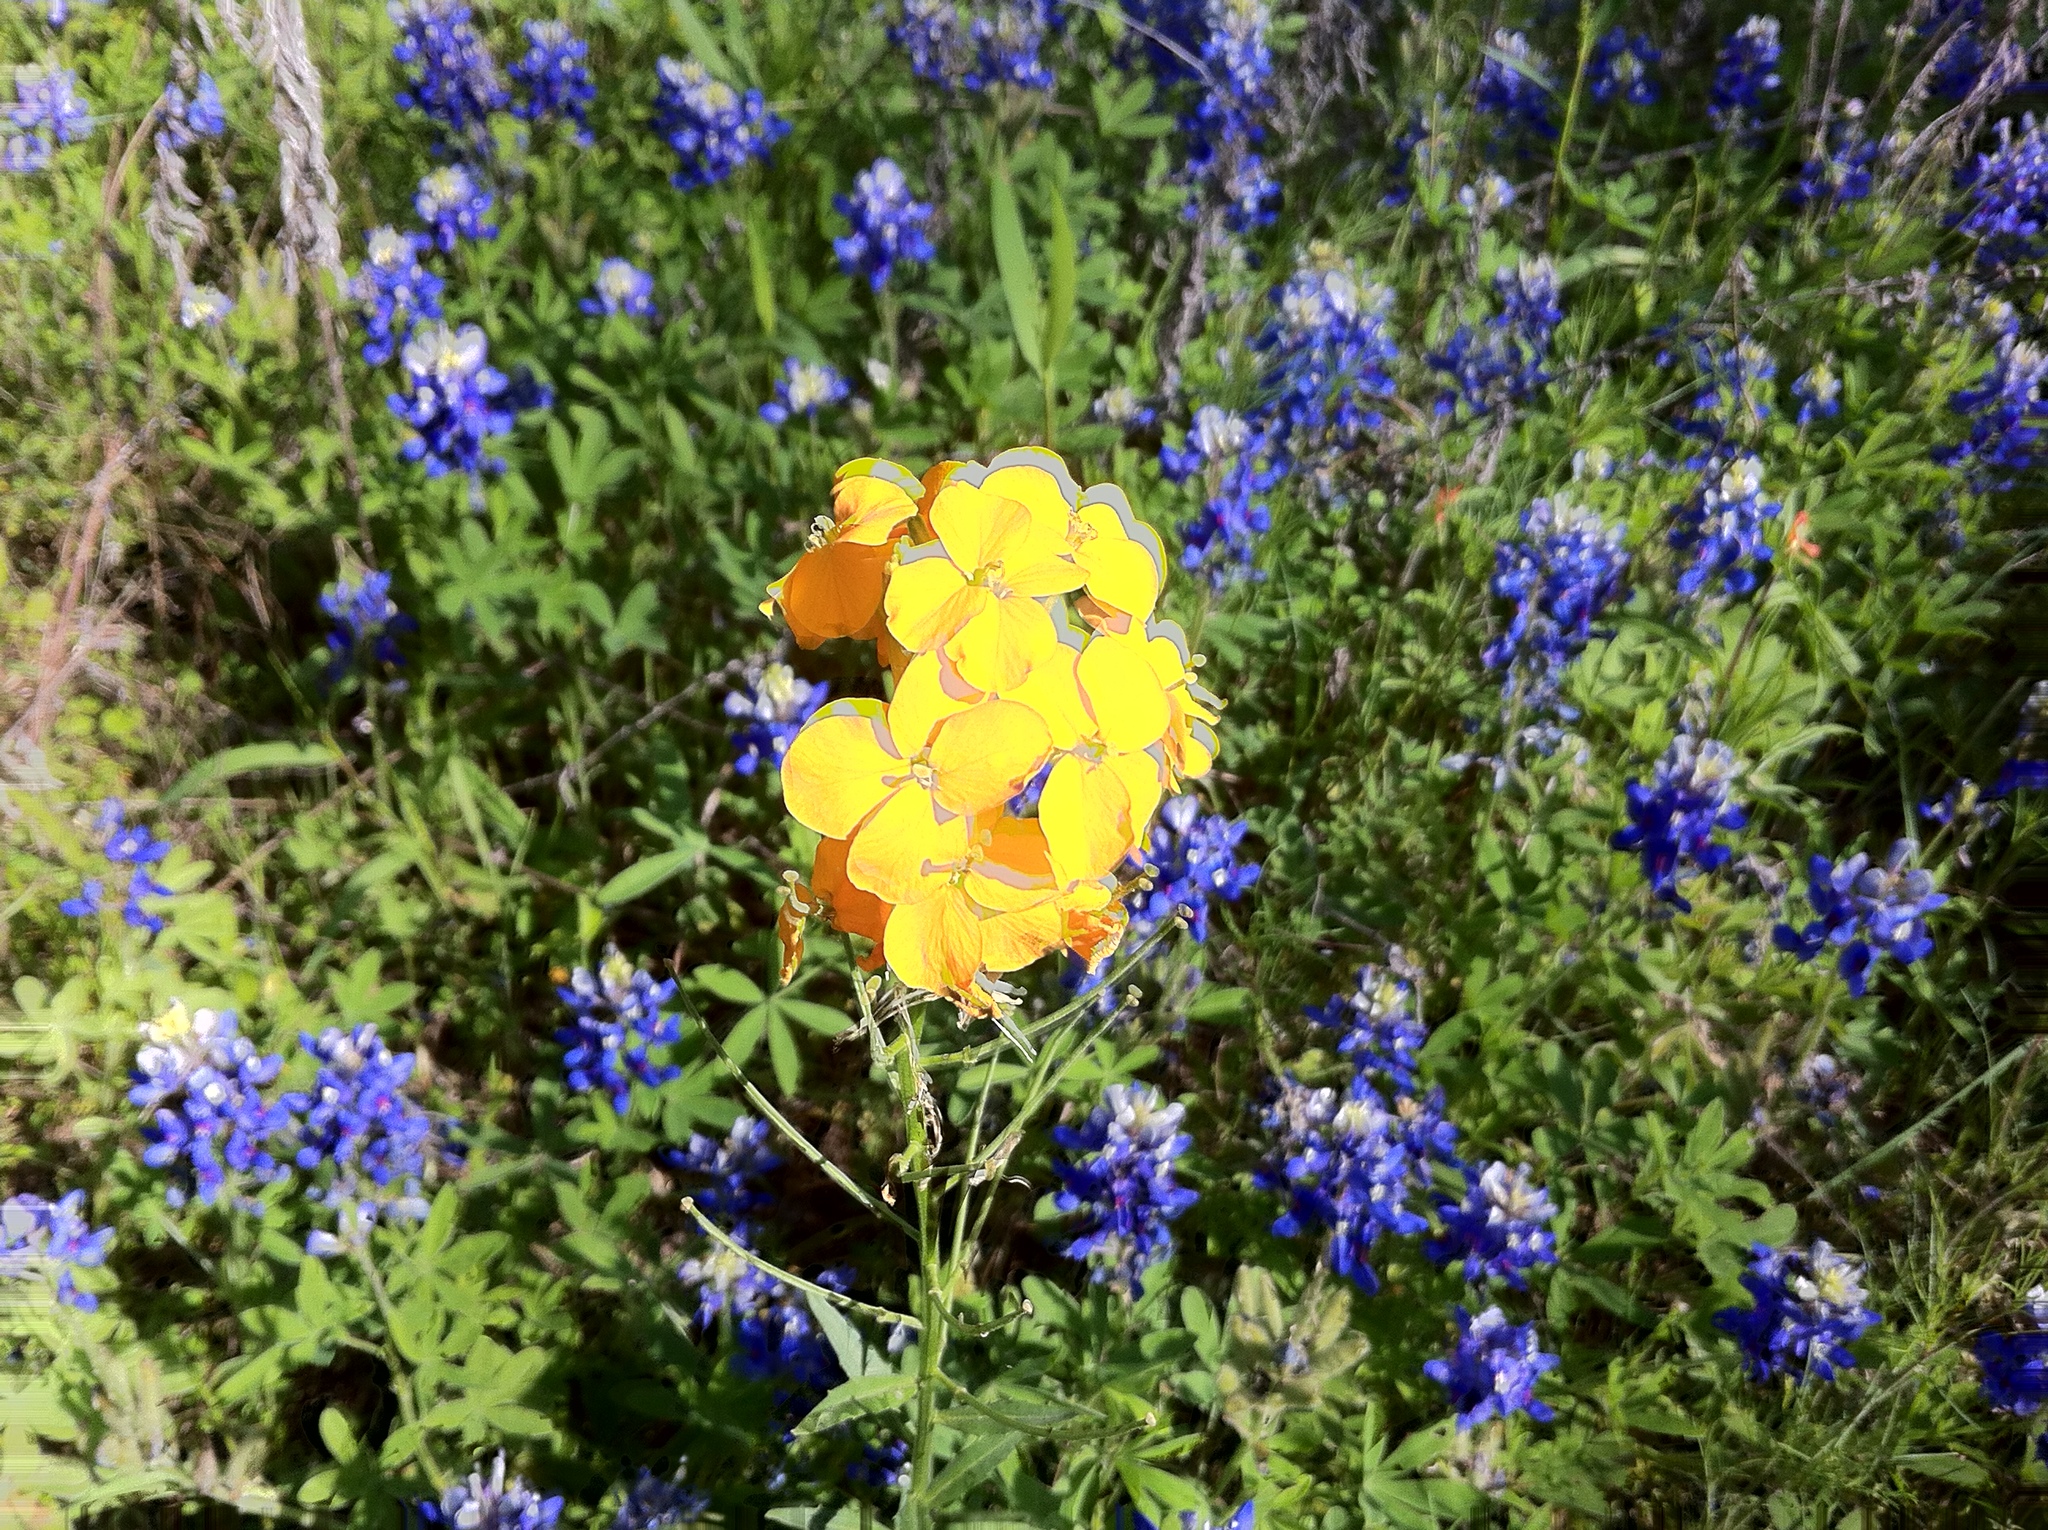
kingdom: Plantae
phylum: Tracheophyta
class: Magnoliopsida
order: Fabales
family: Fabaceae
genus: Lupinus
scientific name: Lupinus texensis
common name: Texas bluebonnet
